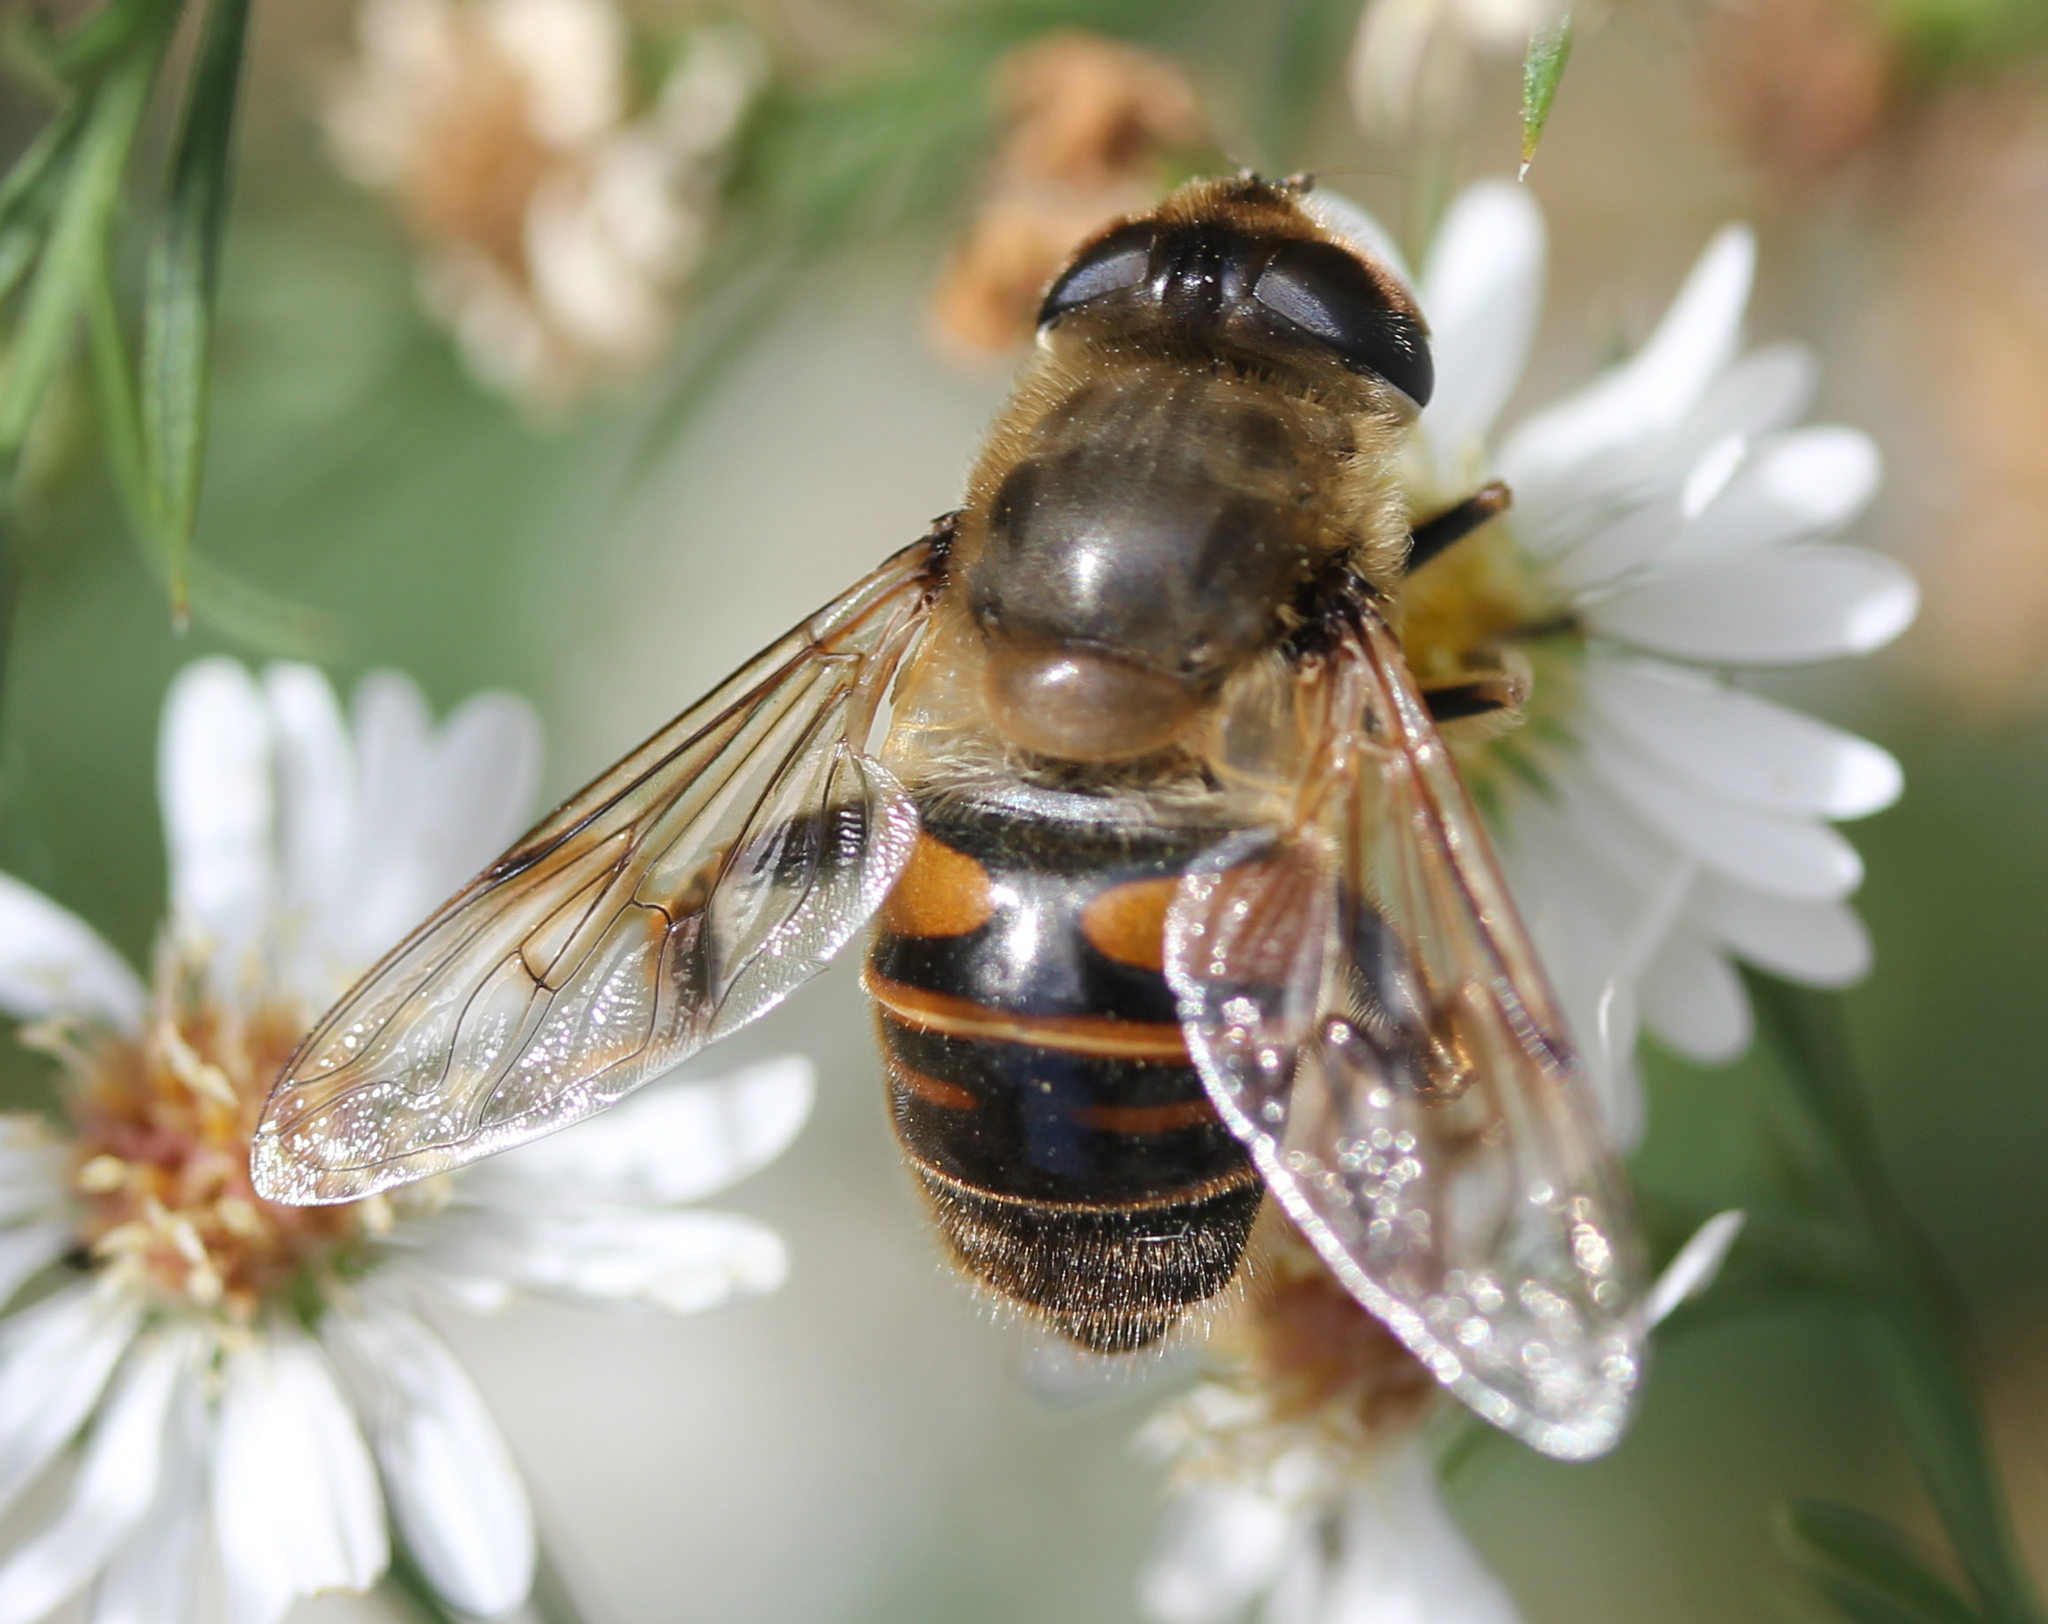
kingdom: Animalia
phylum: Arthropoda
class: Insecta
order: Diptera
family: Syrphidae
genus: Eristalis
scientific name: Eristalis tenax
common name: Drone fly
